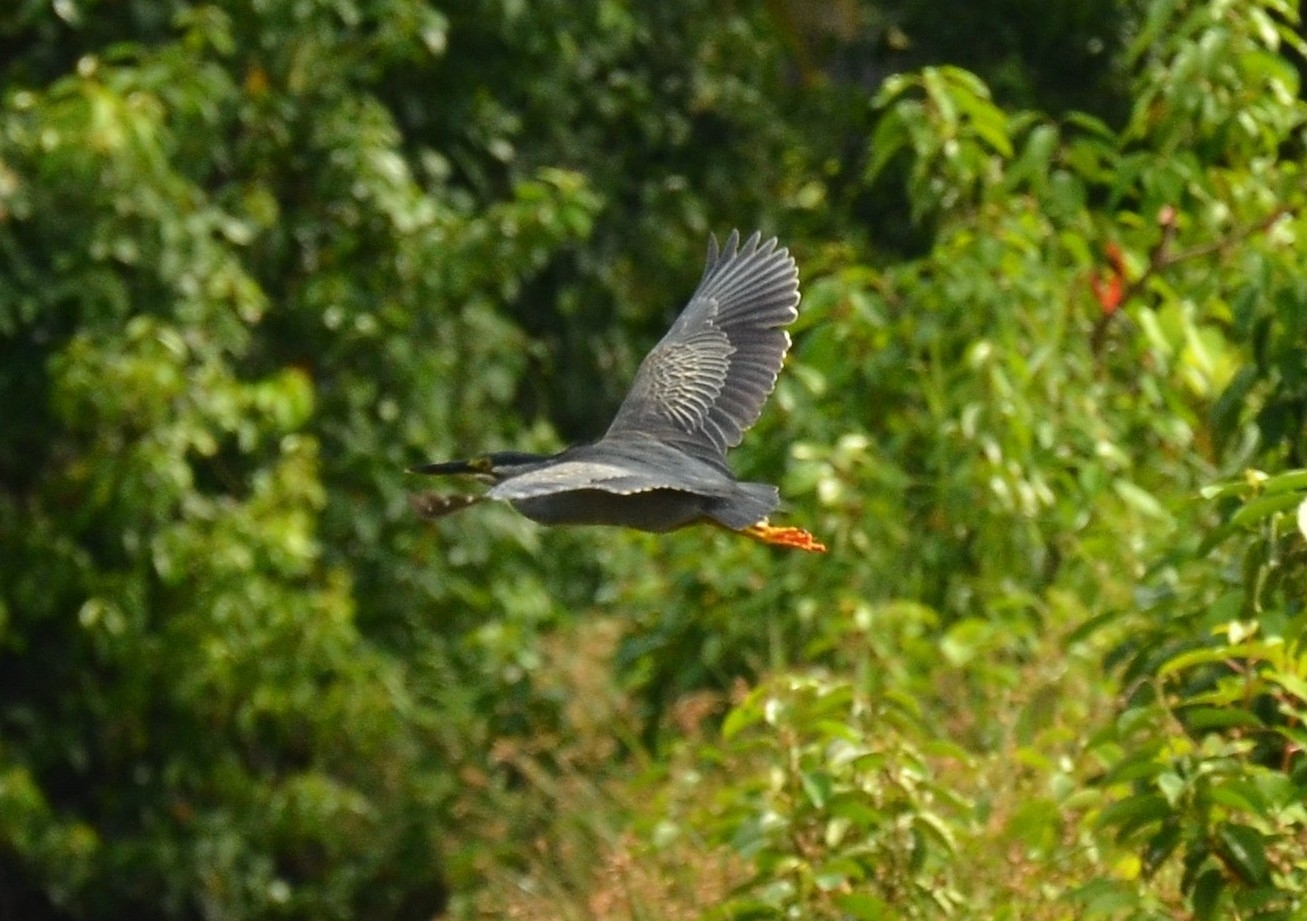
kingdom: Animalia
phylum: Chordata
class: Aves
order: Pelecaniformes
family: Ardeidae
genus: Butorides
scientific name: Butorides striata
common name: Striated heron
